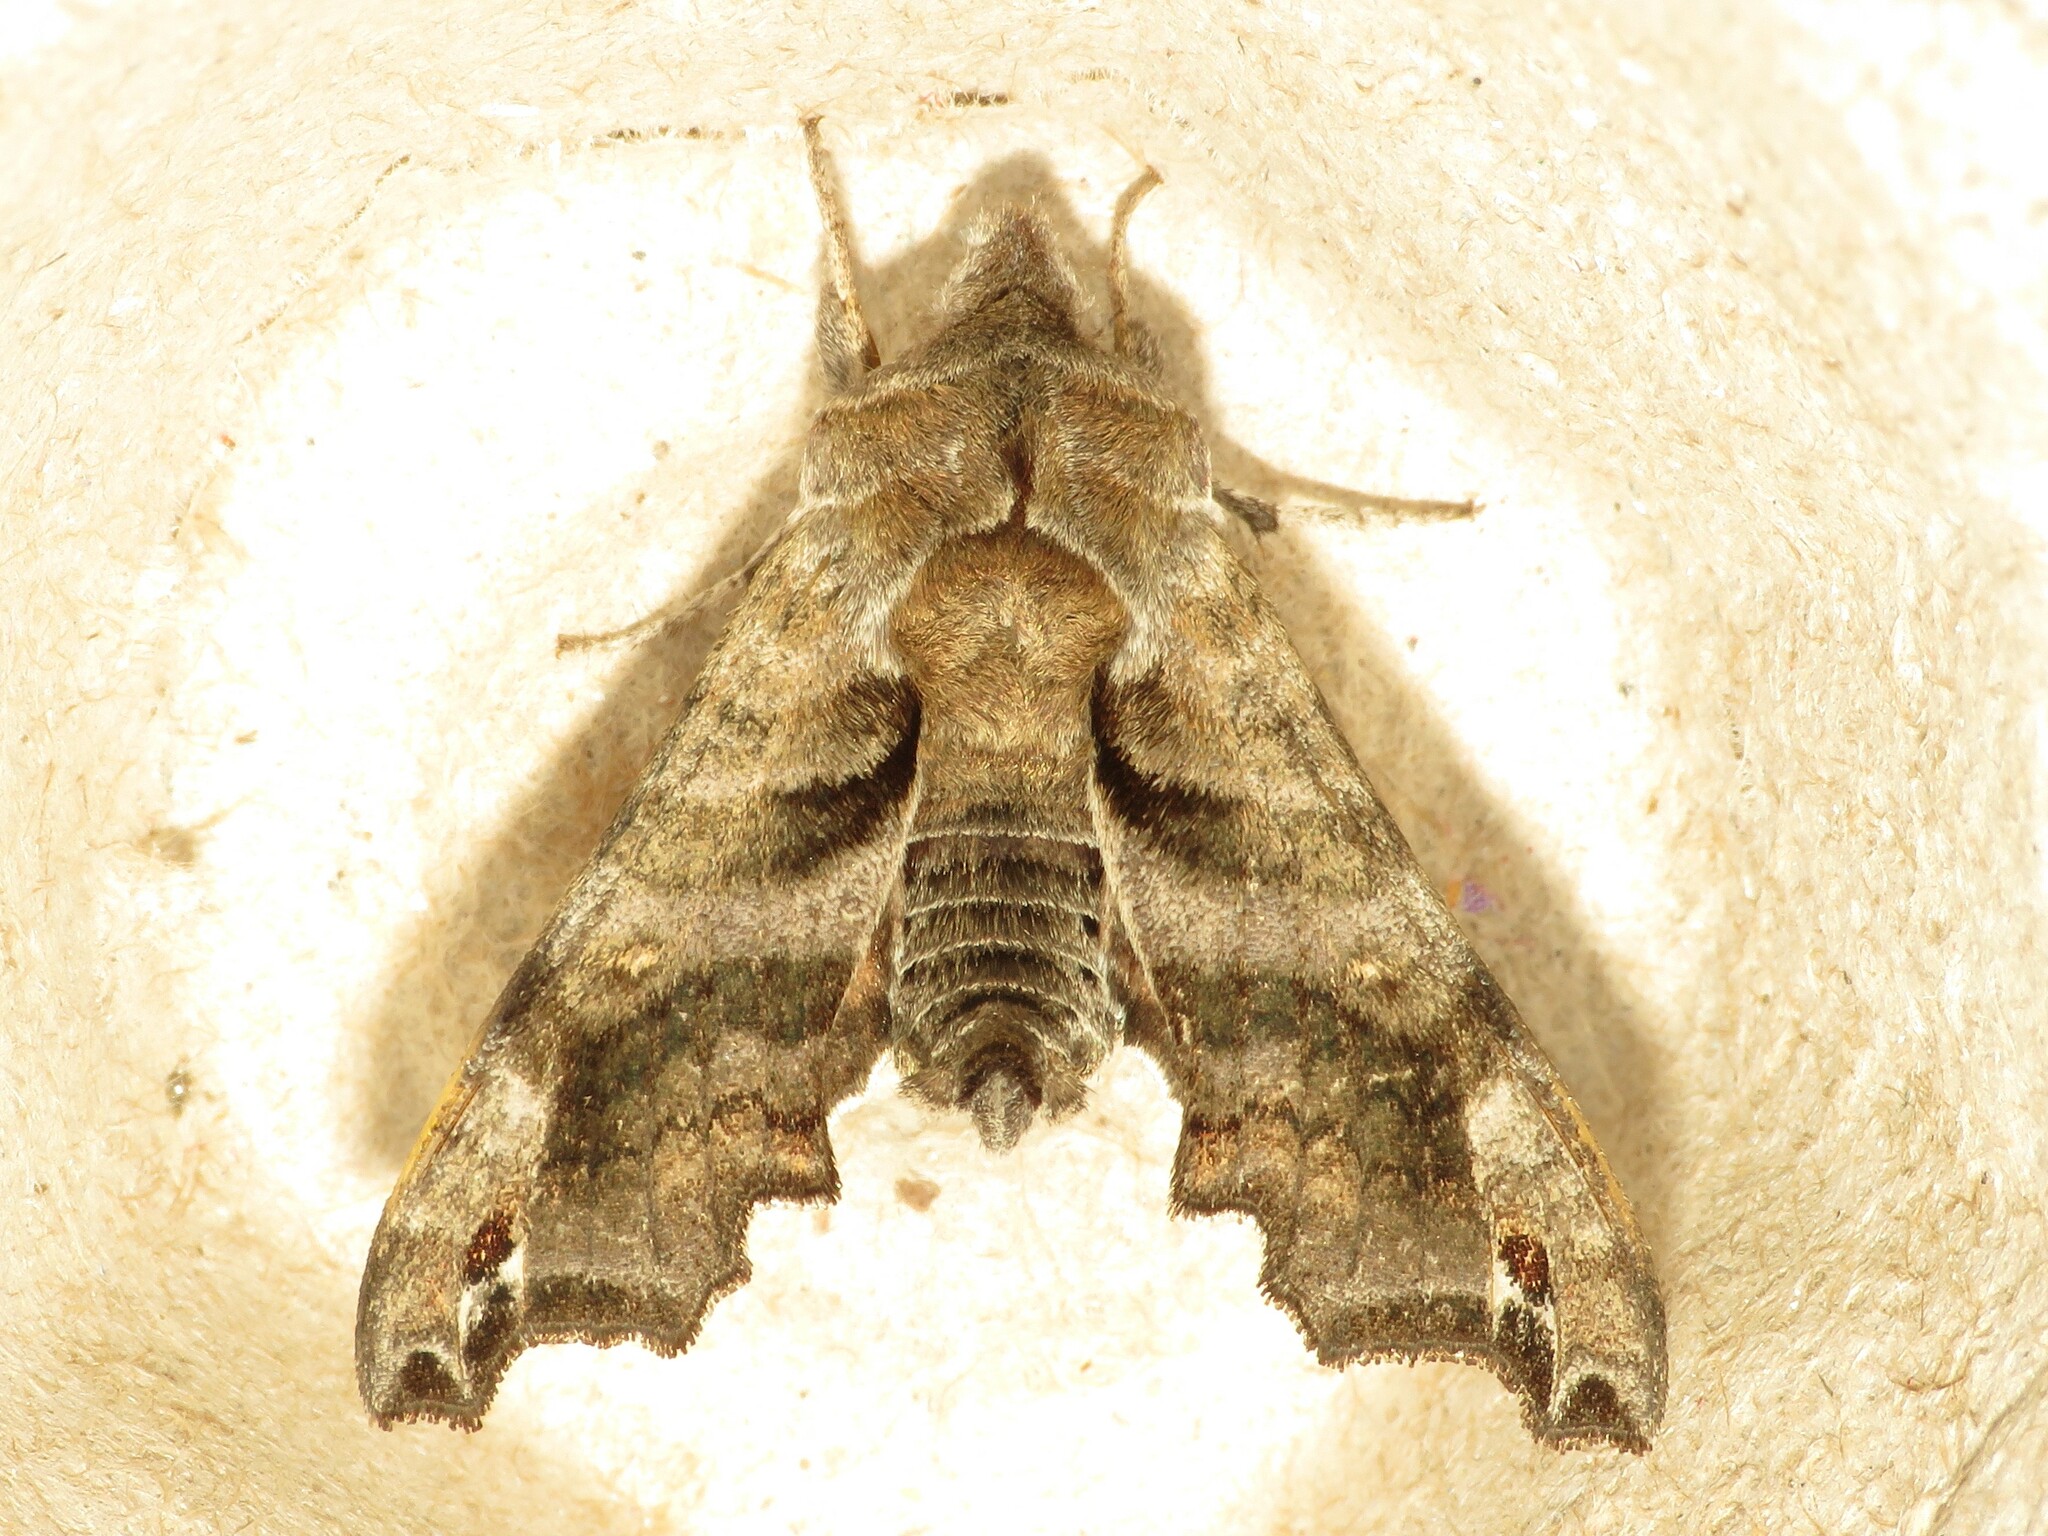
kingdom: Animalia
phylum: Arthropoda
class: Insecta
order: Lepidoptera
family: Sphingidae
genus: Deidamia
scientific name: Deidamia inscriptum
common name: Lettered sphinx
